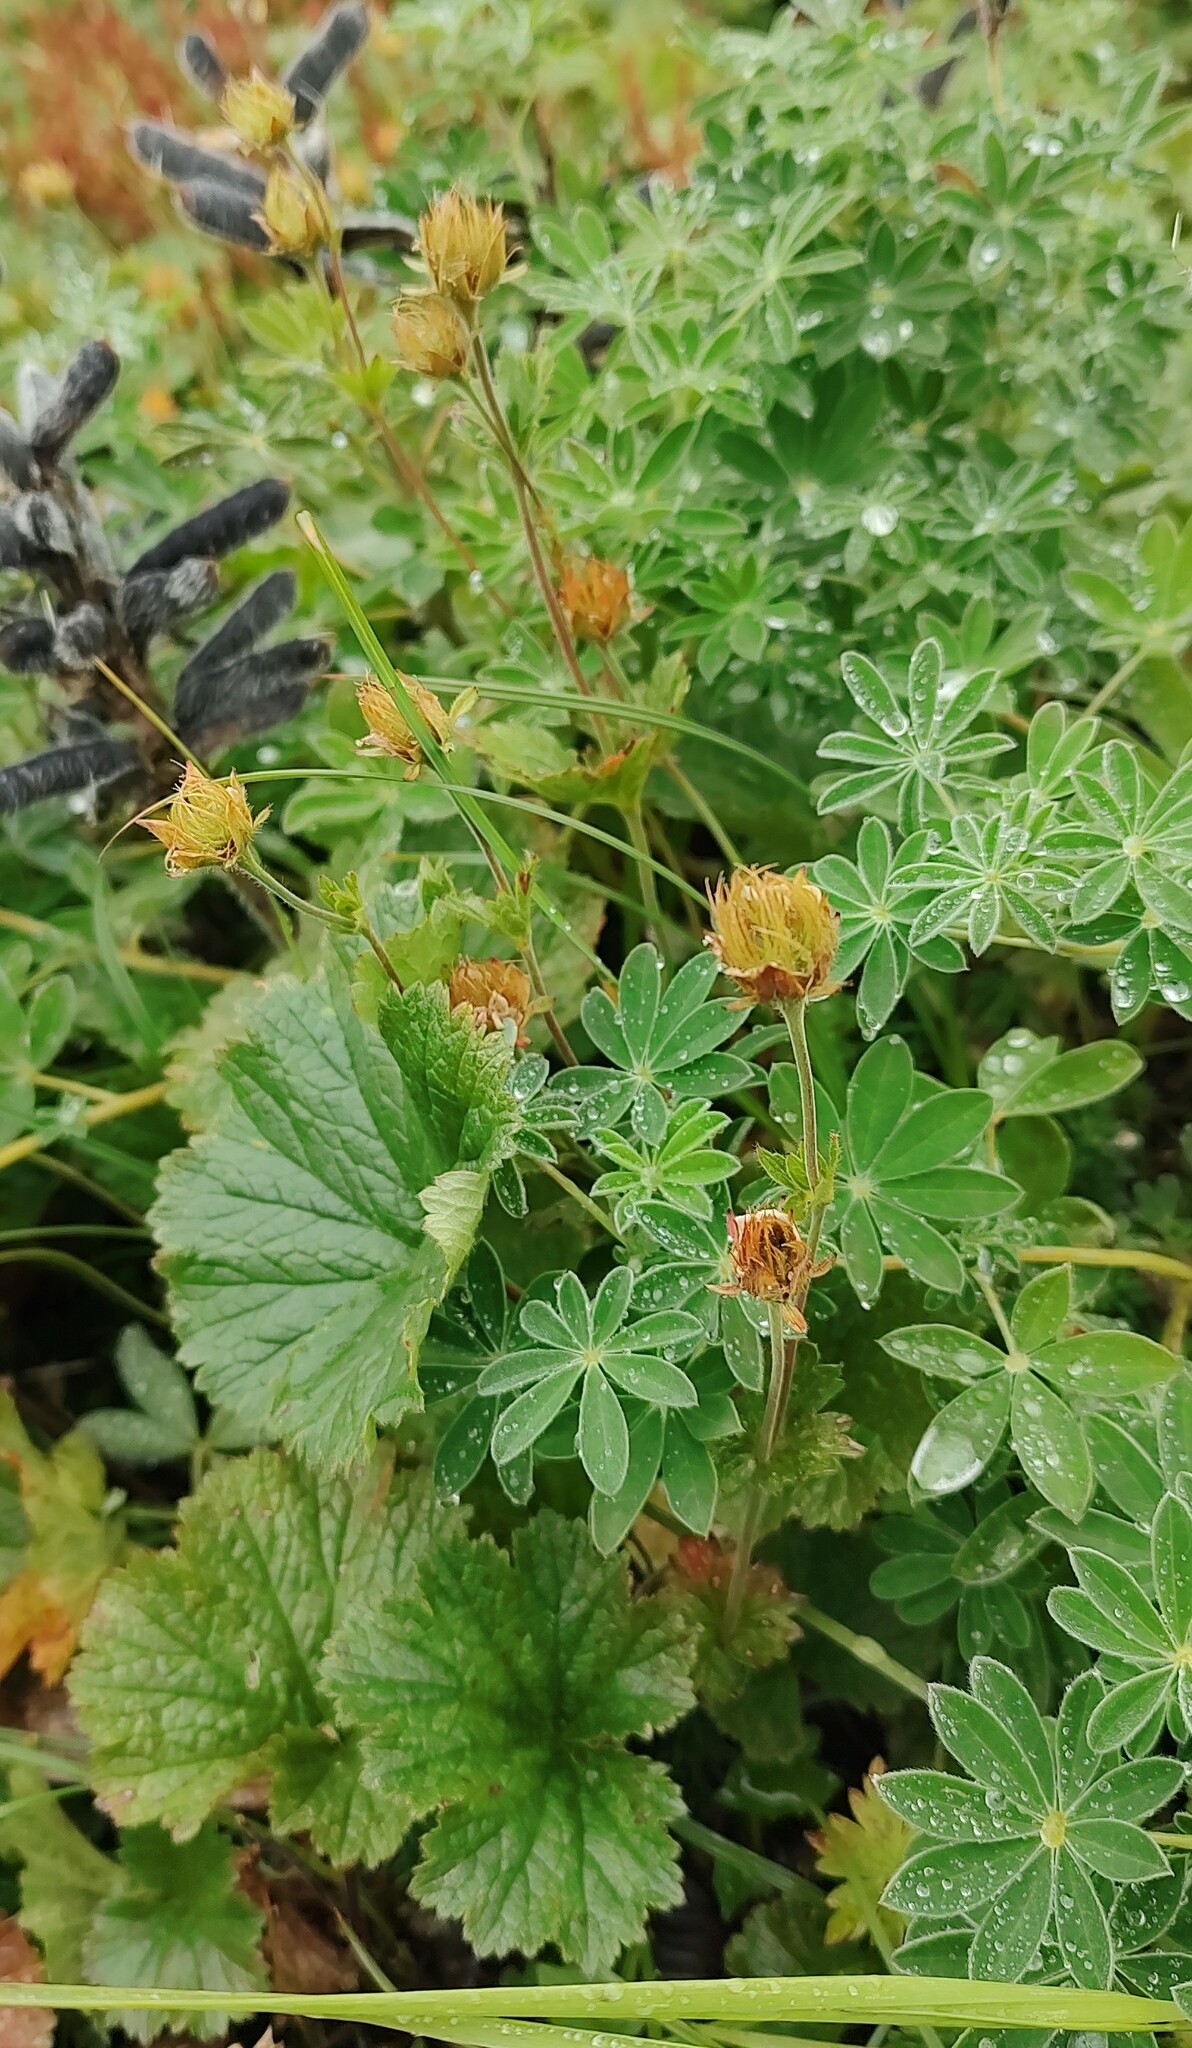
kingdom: Plantae
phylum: Tracheophyta
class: Magnoliopsida
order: Rosales
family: Rosaceae
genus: Geum
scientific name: Geum calthifolium
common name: Caltha-leaved avens
